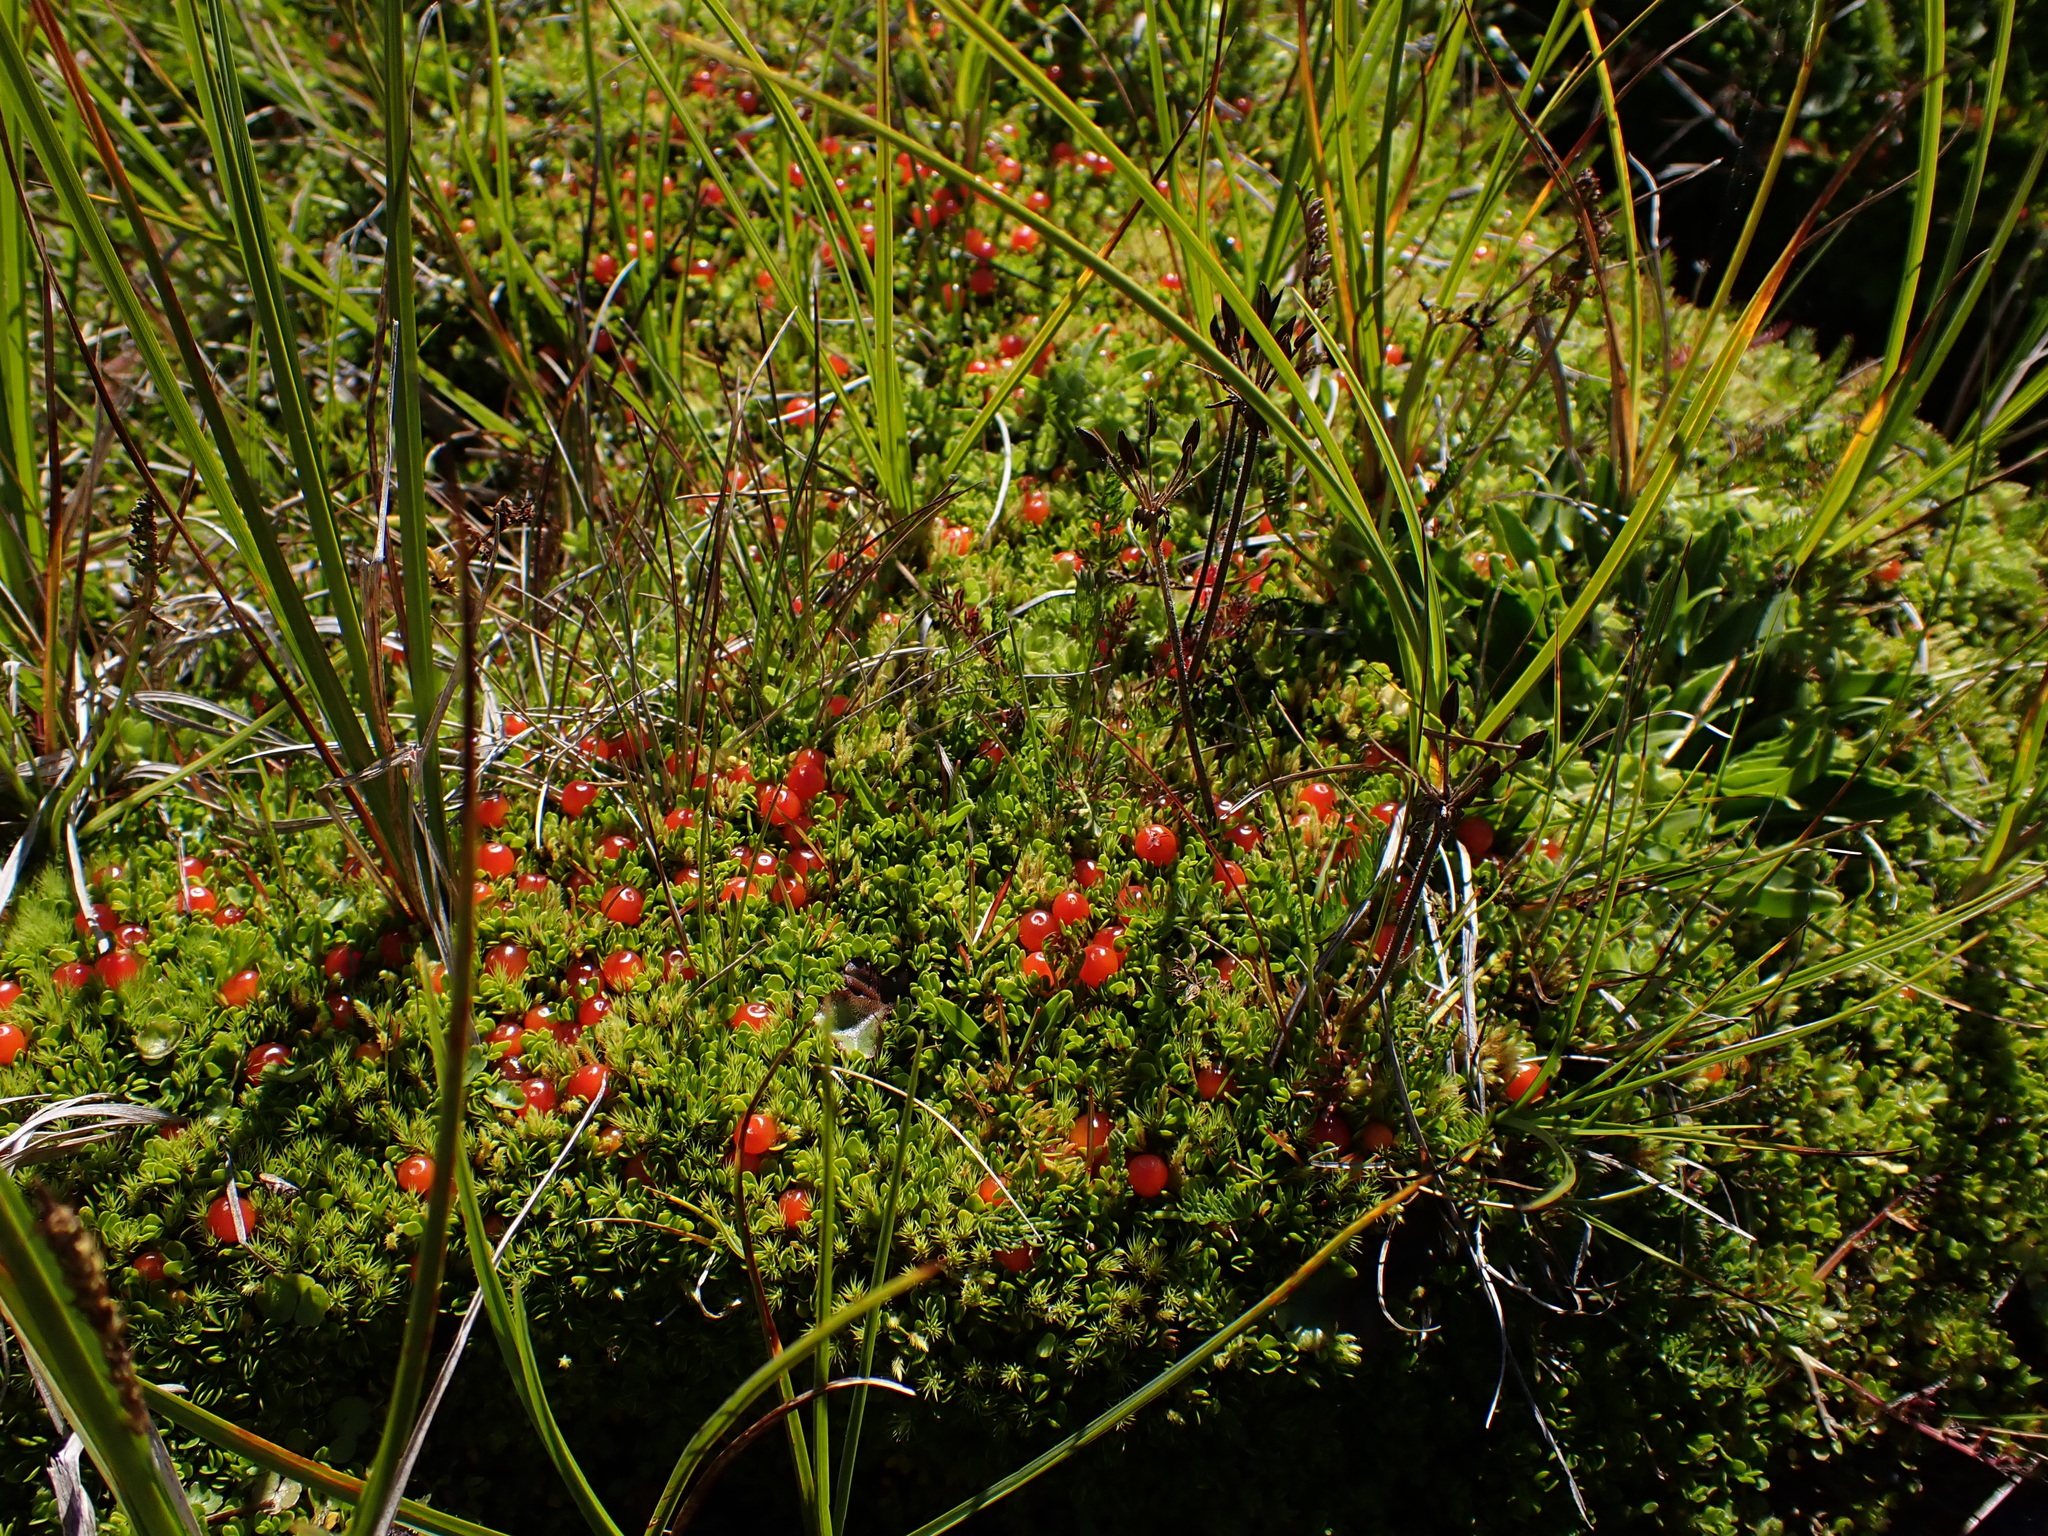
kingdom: Plantae
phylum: Tracheophyta
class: Magnoliopsida
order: Gentianales
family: Rubiaceae
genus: Nertera
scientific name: Nertera granadensis
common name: Beadplant
